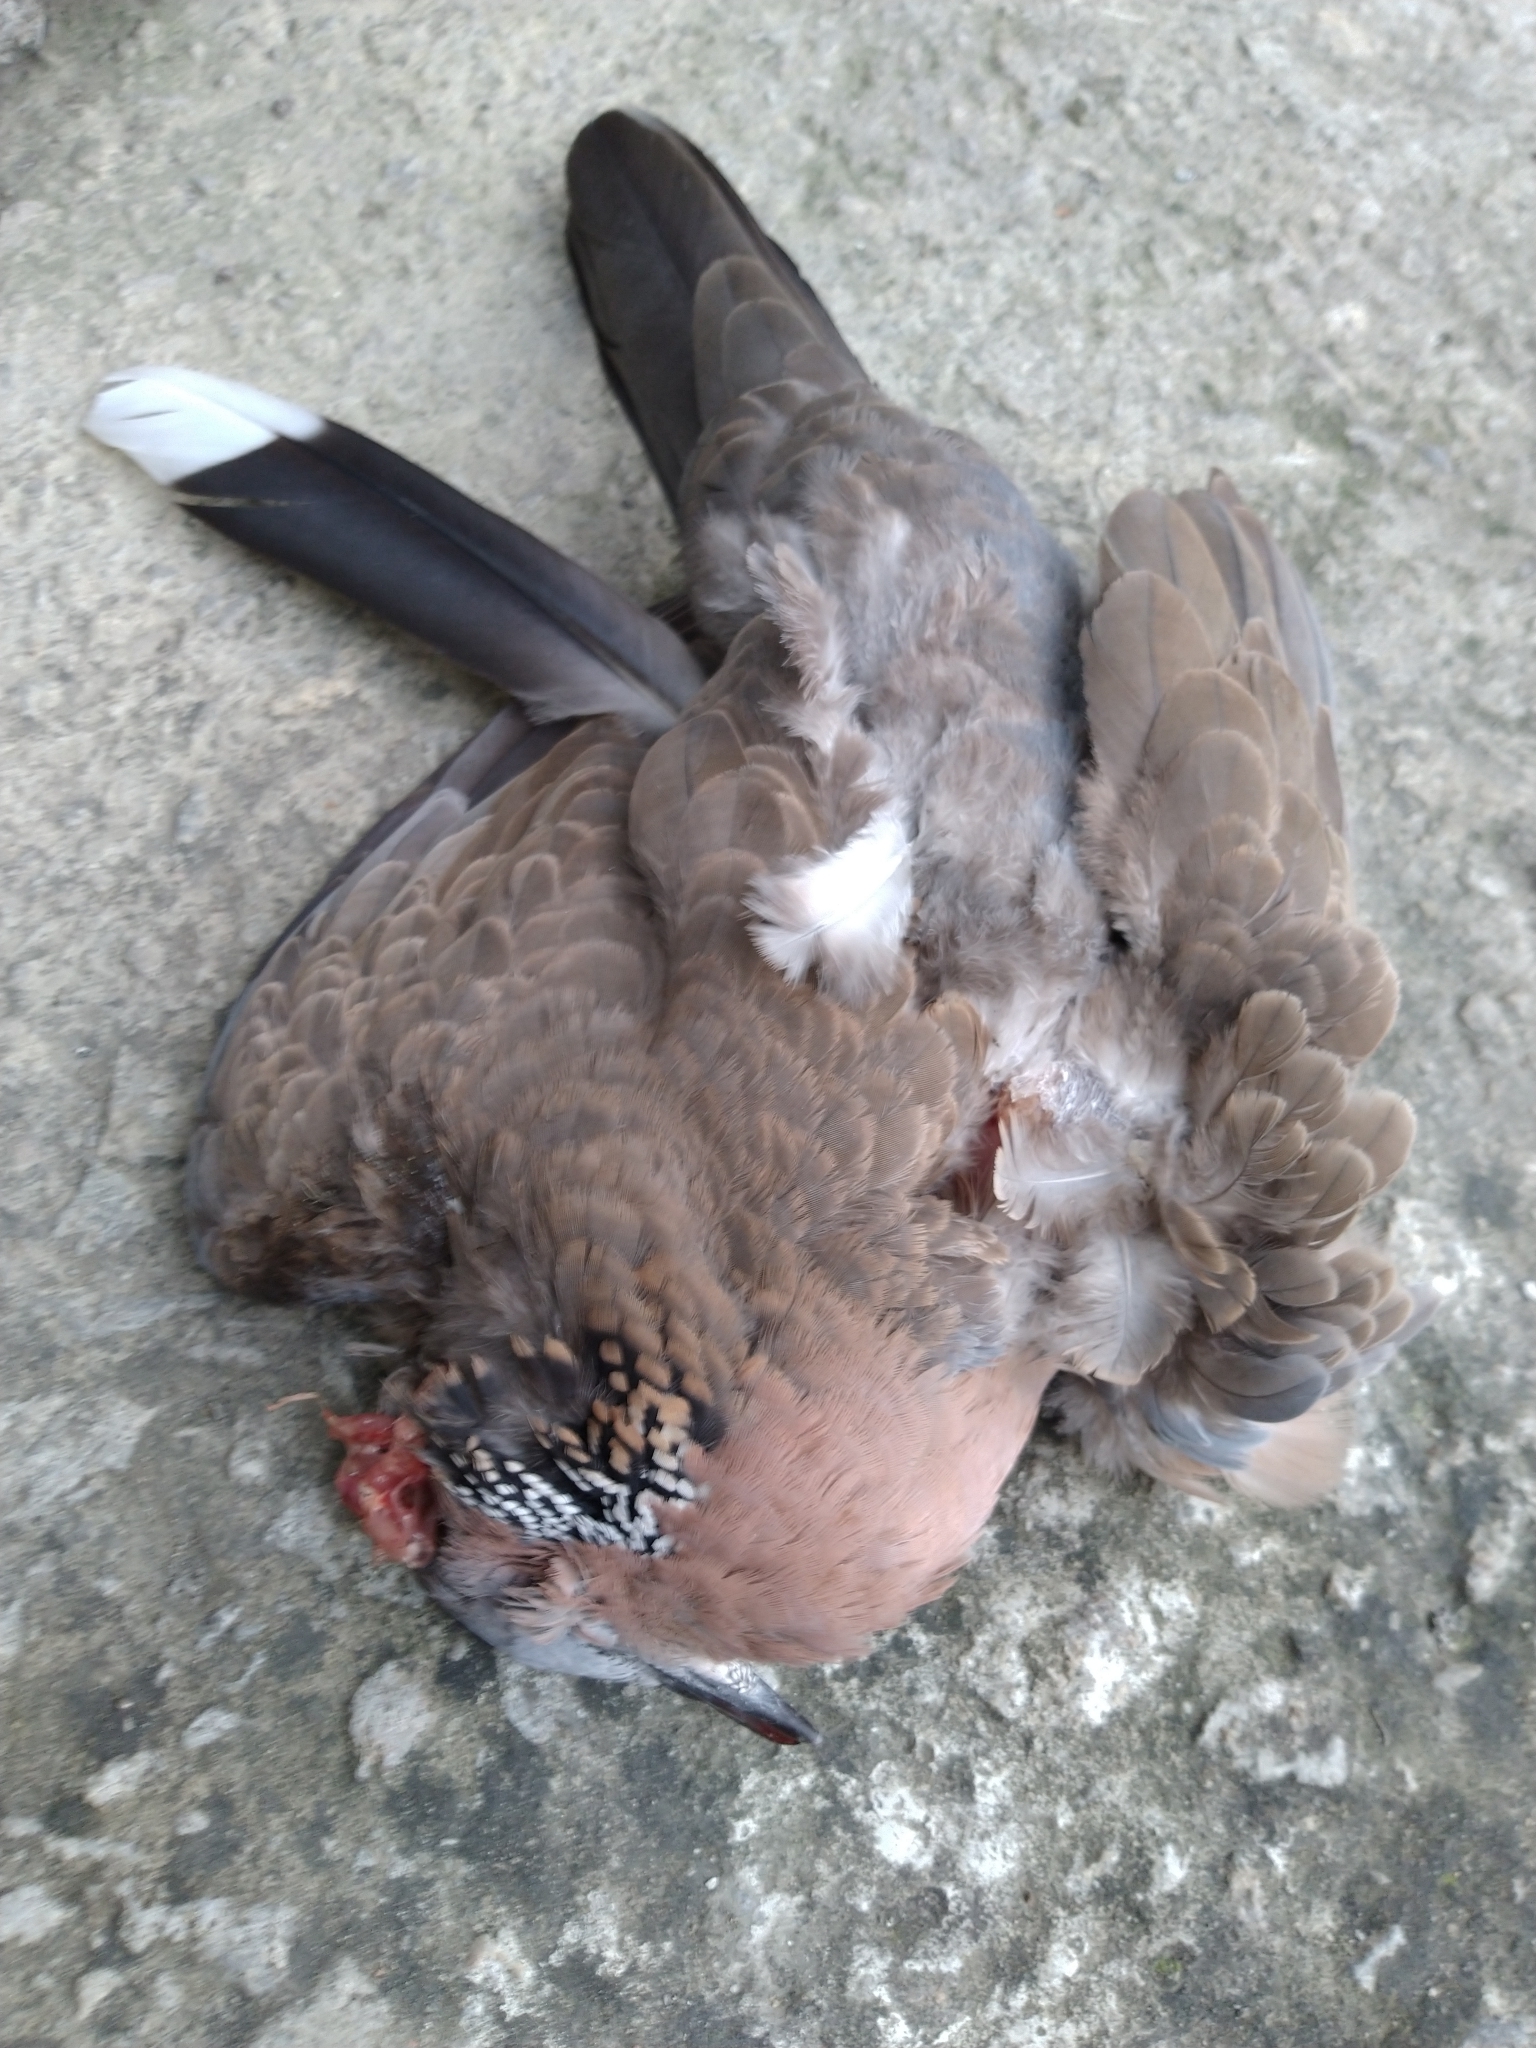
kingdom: Animalia
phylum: Chordata
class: Aves
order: Columbiformes
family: Columbidae
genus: Spilopelia
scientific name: Spilopelia chinensis
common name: Spotted dove
